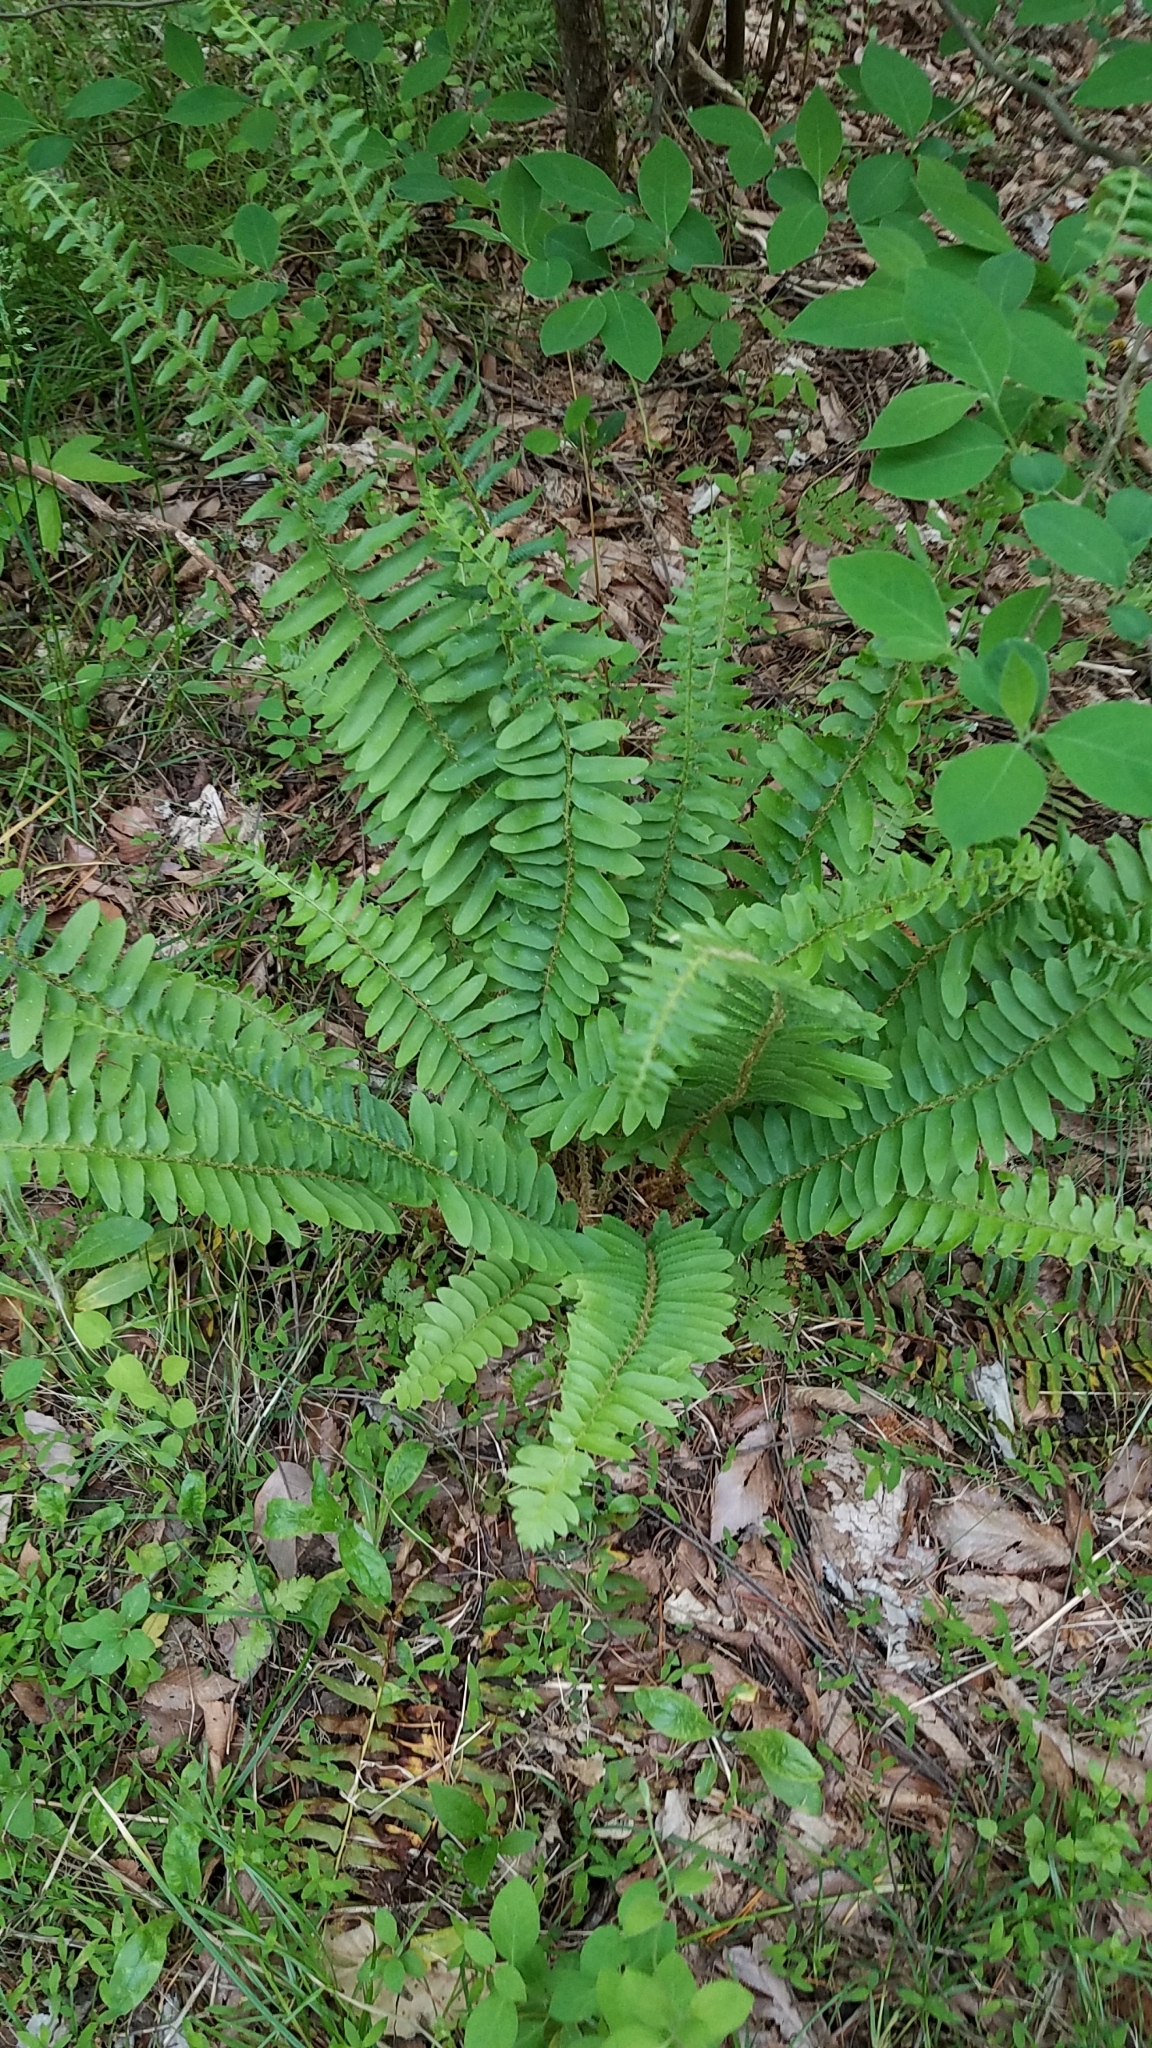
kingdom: Plantae
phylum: Tracheophyta
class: Polypodiopsida
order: Polypodiales
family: Dryopteridaceae
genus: Polystichum
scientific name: Polystichum acrostichoides
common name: Christmas fern
